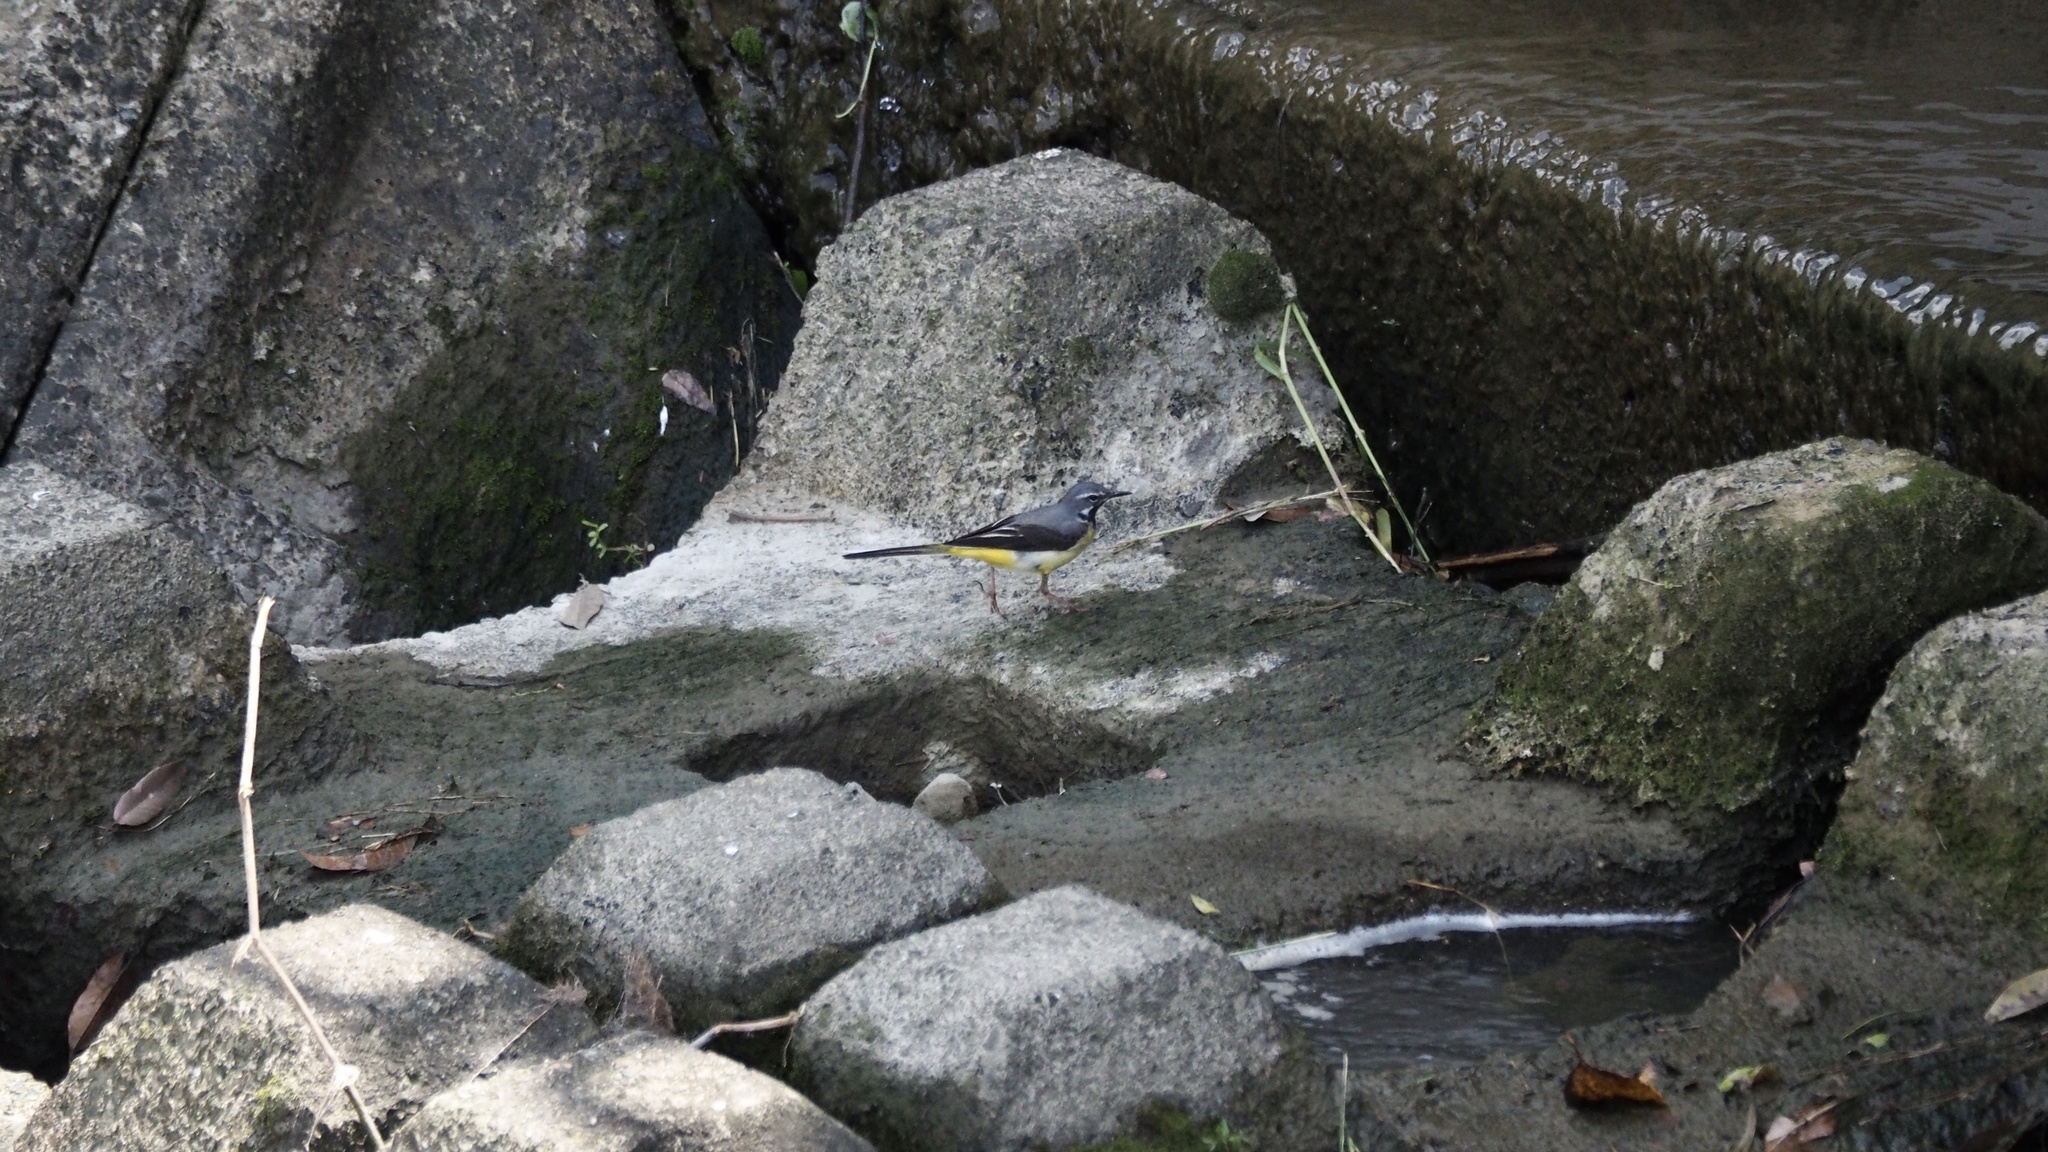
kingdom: Animalia
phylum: Chordata
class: Aves
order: Passeriformes
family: Motacillidae
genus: Motacilla
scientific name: Motacilla cinerea
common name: Grey wagtail
